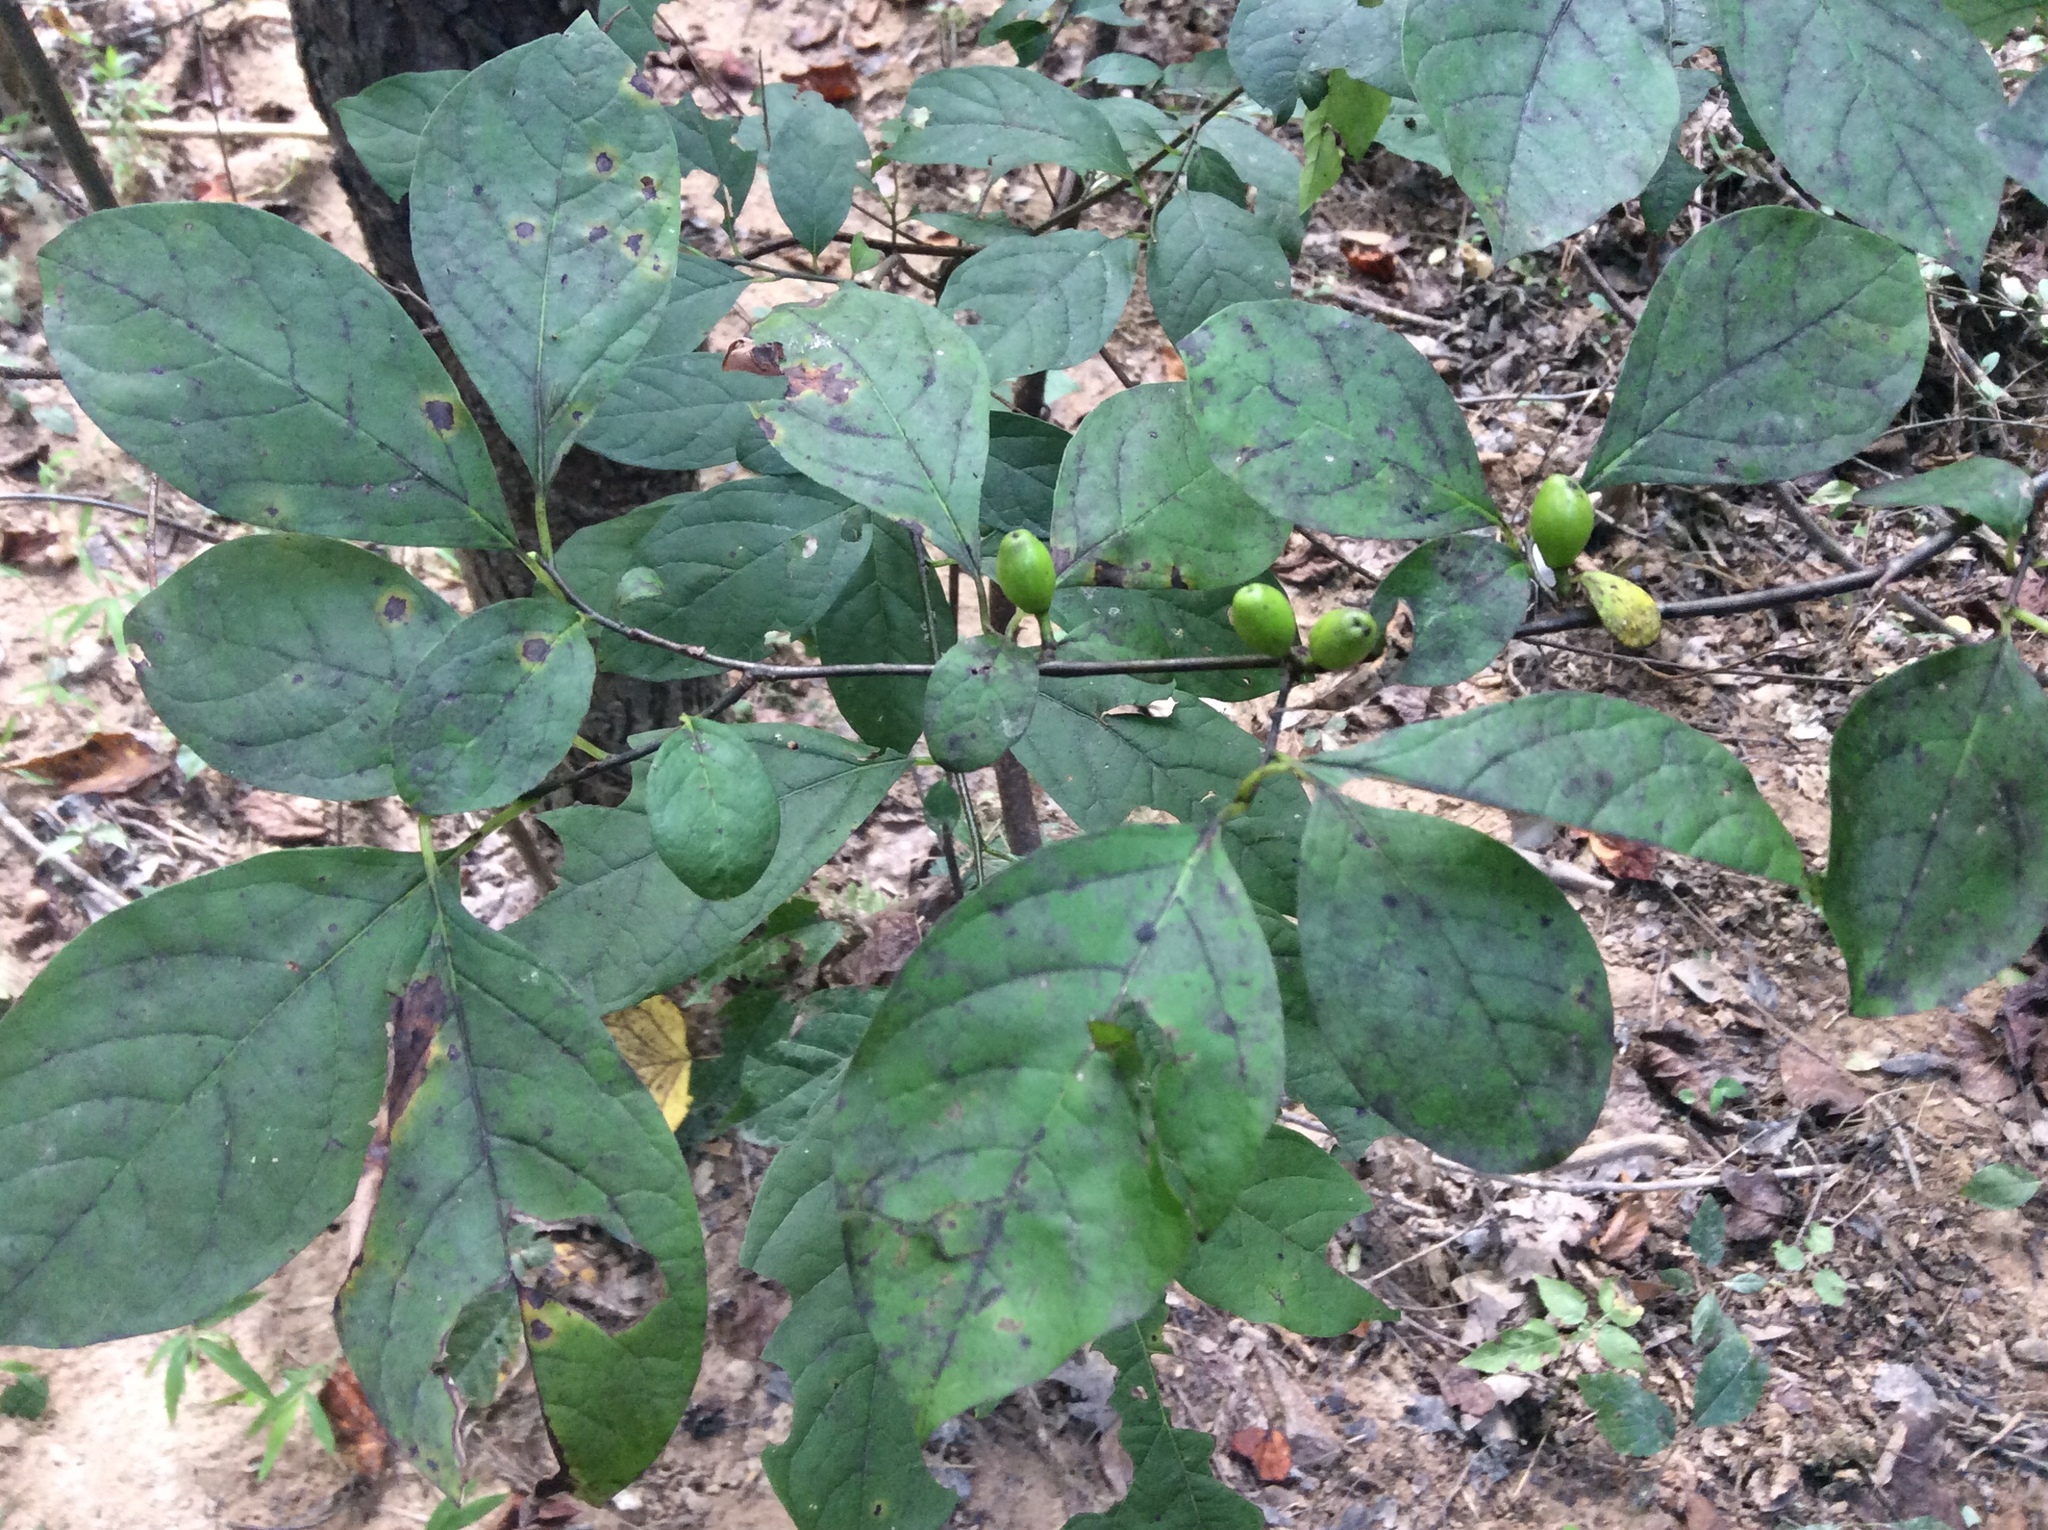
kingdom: Plantae
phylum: Tracheophyta
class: Magnoliopsida
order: Laurales
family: Lauraceae
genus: Lindera
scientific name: Lindera benzoin
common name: Spicebush
